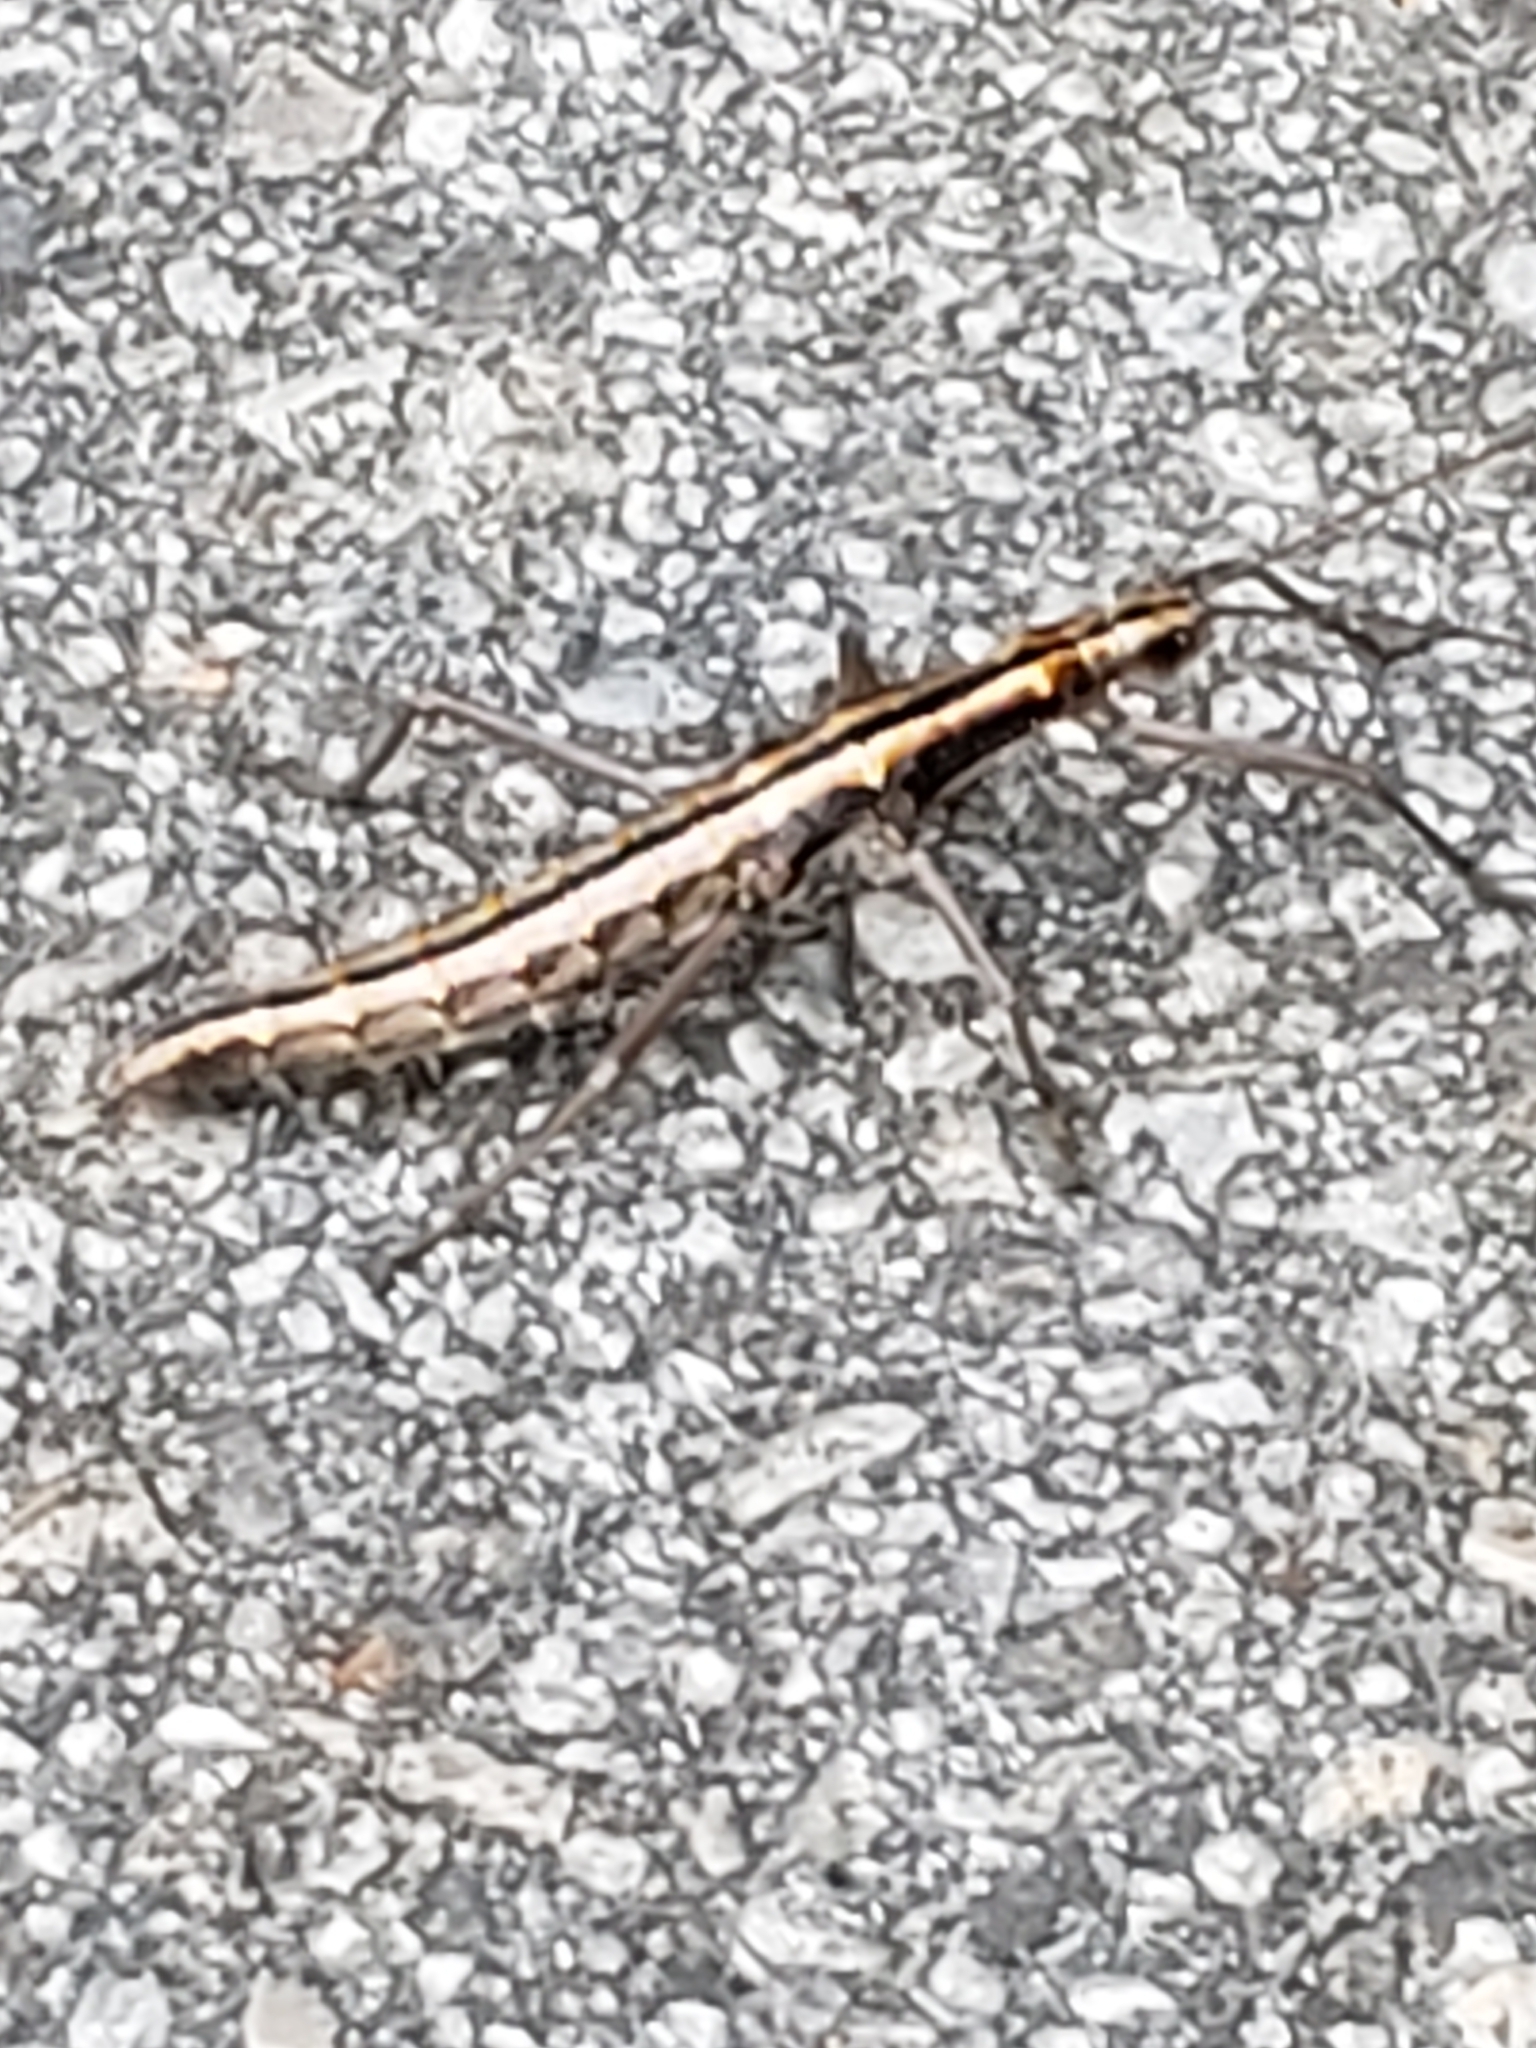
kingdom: Animalia
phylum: Arthropoda
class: Insecta
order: Phasmida
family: Pseudophasmatidae
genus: Anisomorpha
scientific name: Anisomorpha buprestoides
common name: Florida stick insect
